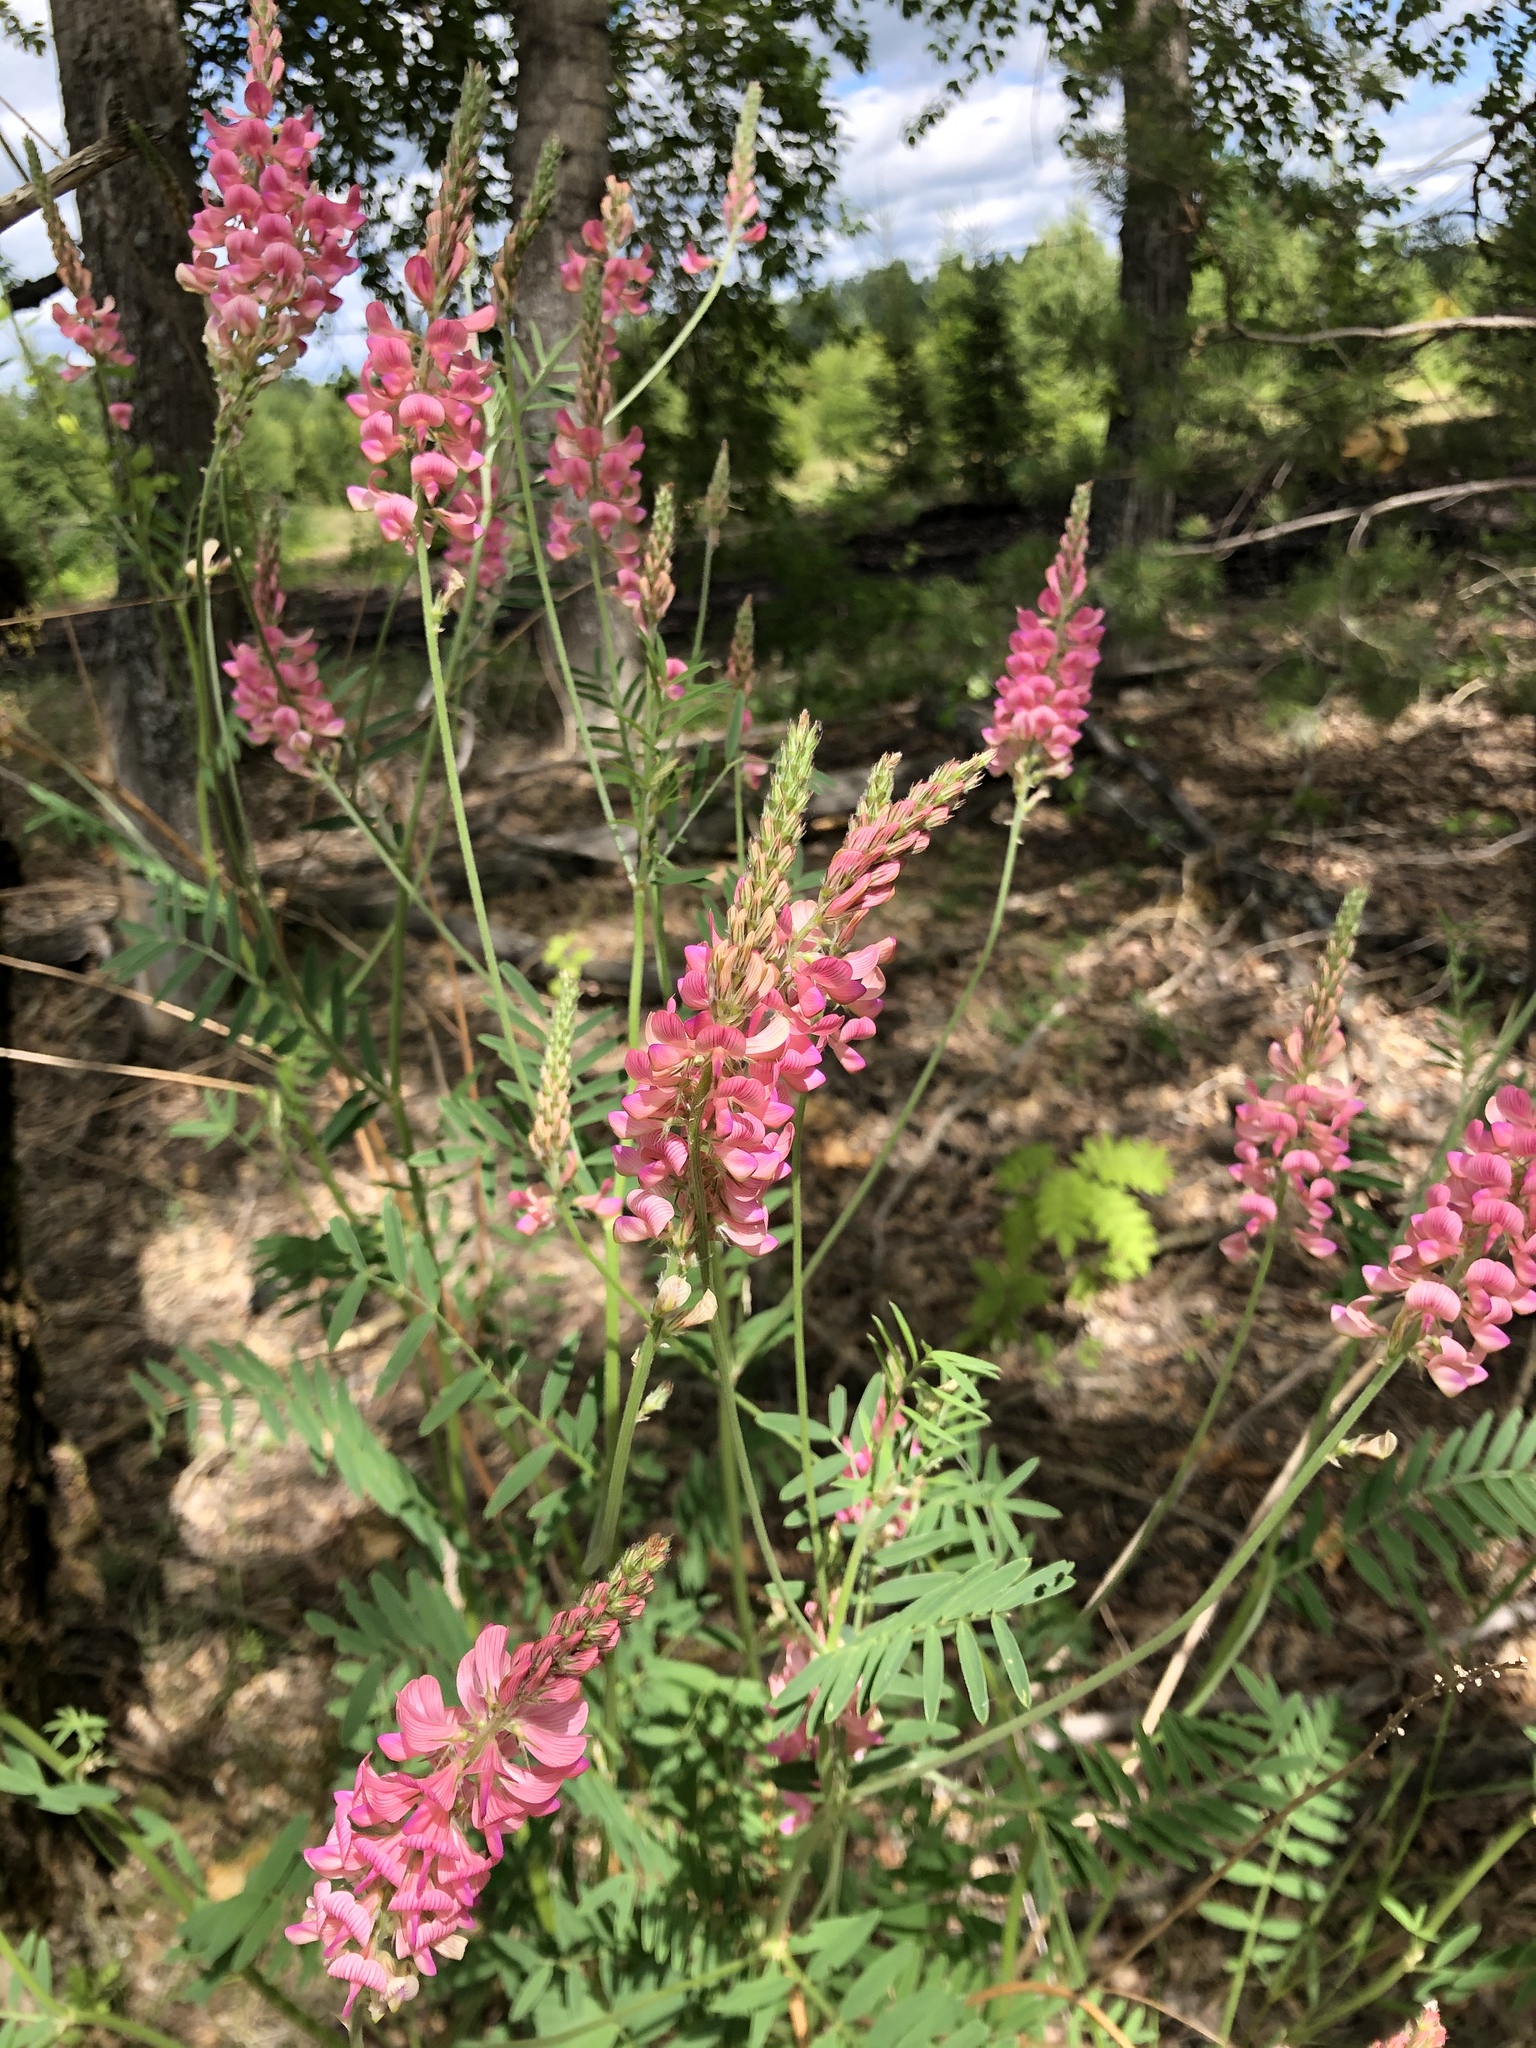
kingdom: Plantae
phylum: Tracheophyta
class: Magnoliopsida
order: Fabales
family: Fabaceae
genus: Onobrychis
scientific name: Onobrychis viciifolia
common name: Sainfoin
